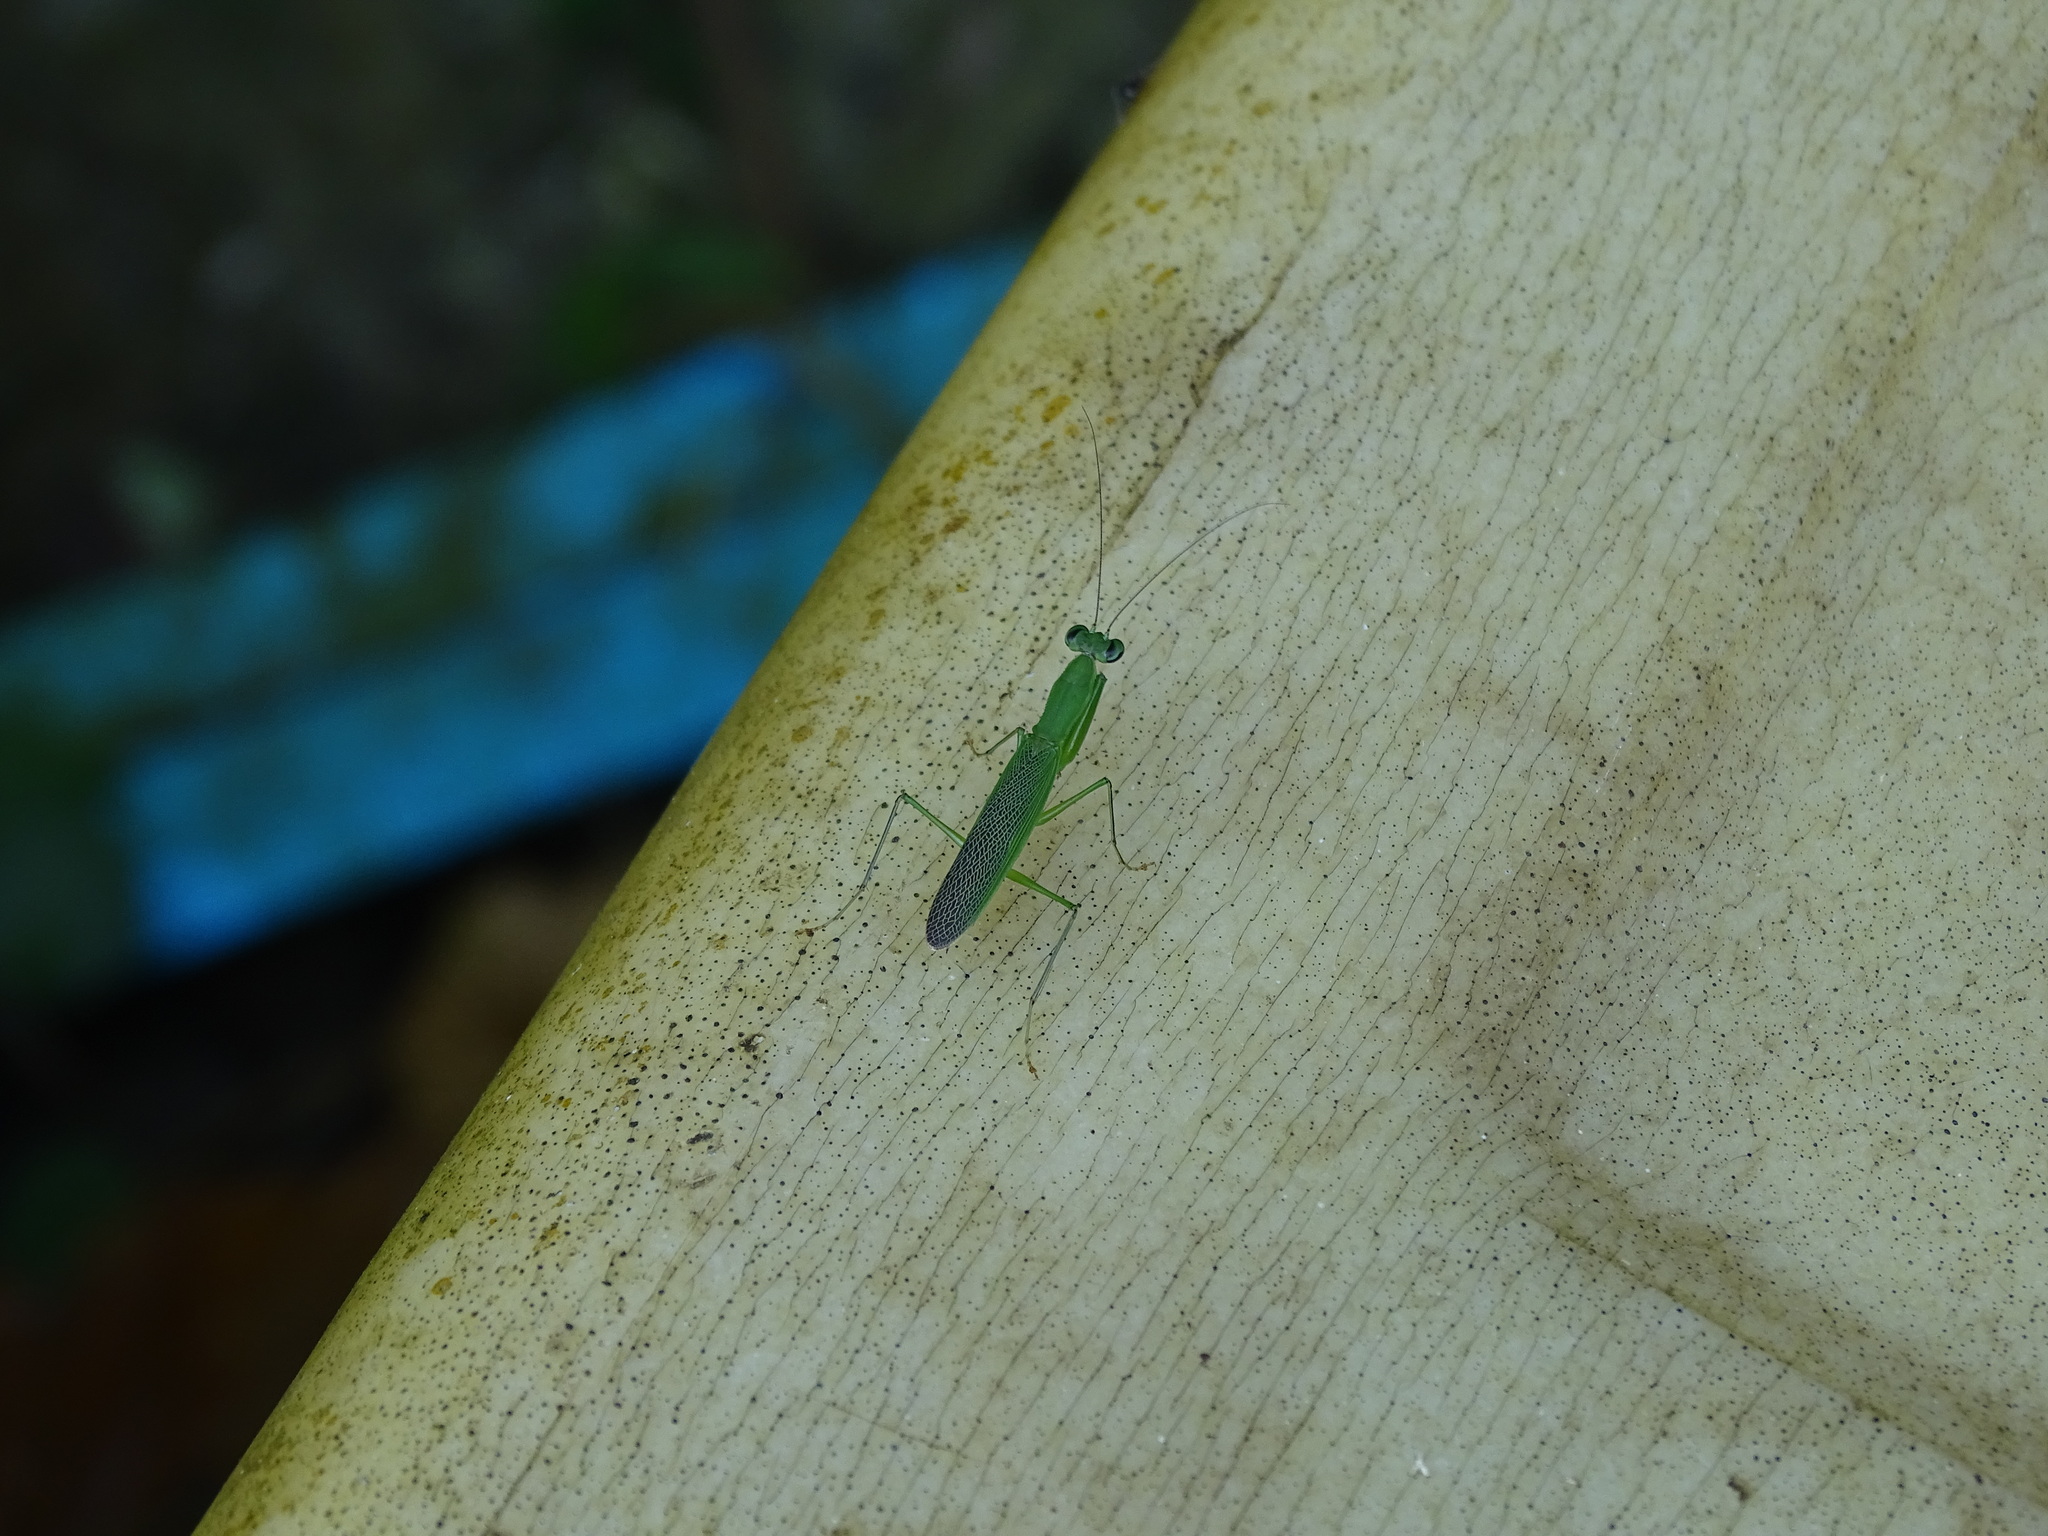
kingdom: Animalia
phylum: Arthropoda
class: Insecta
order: Mantodea
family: Hymenopodidae
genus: Odontomantis
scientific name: Odontomantis planiceps
